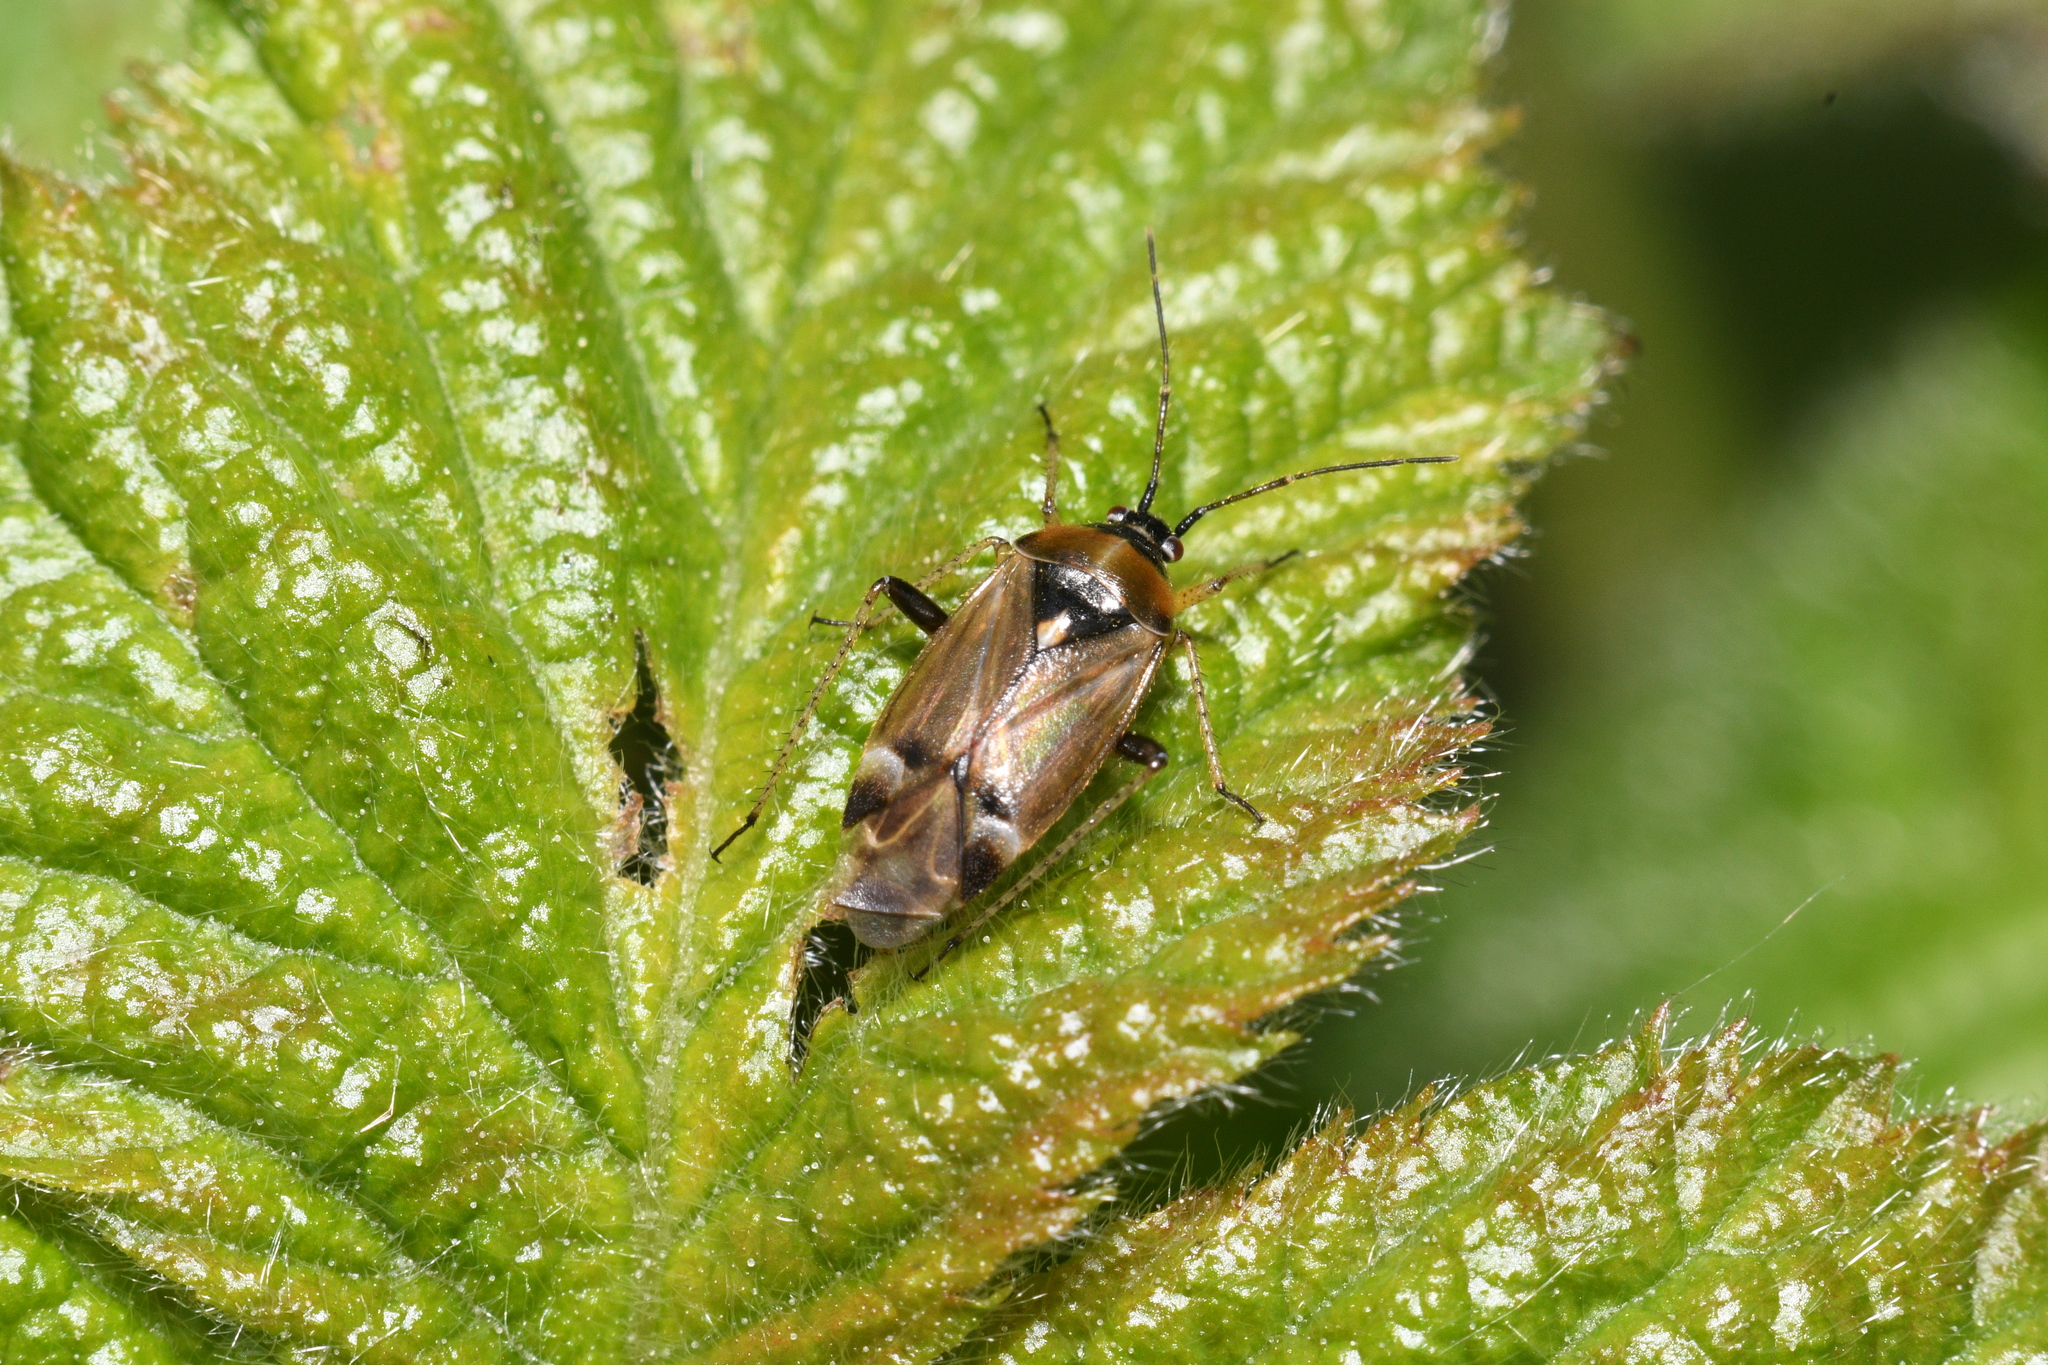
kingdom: Animalia
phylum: Arthropoda
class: Insecta
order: Hemiptera
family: Miridae
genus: Harpocera
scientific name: Harpocera thoracica
